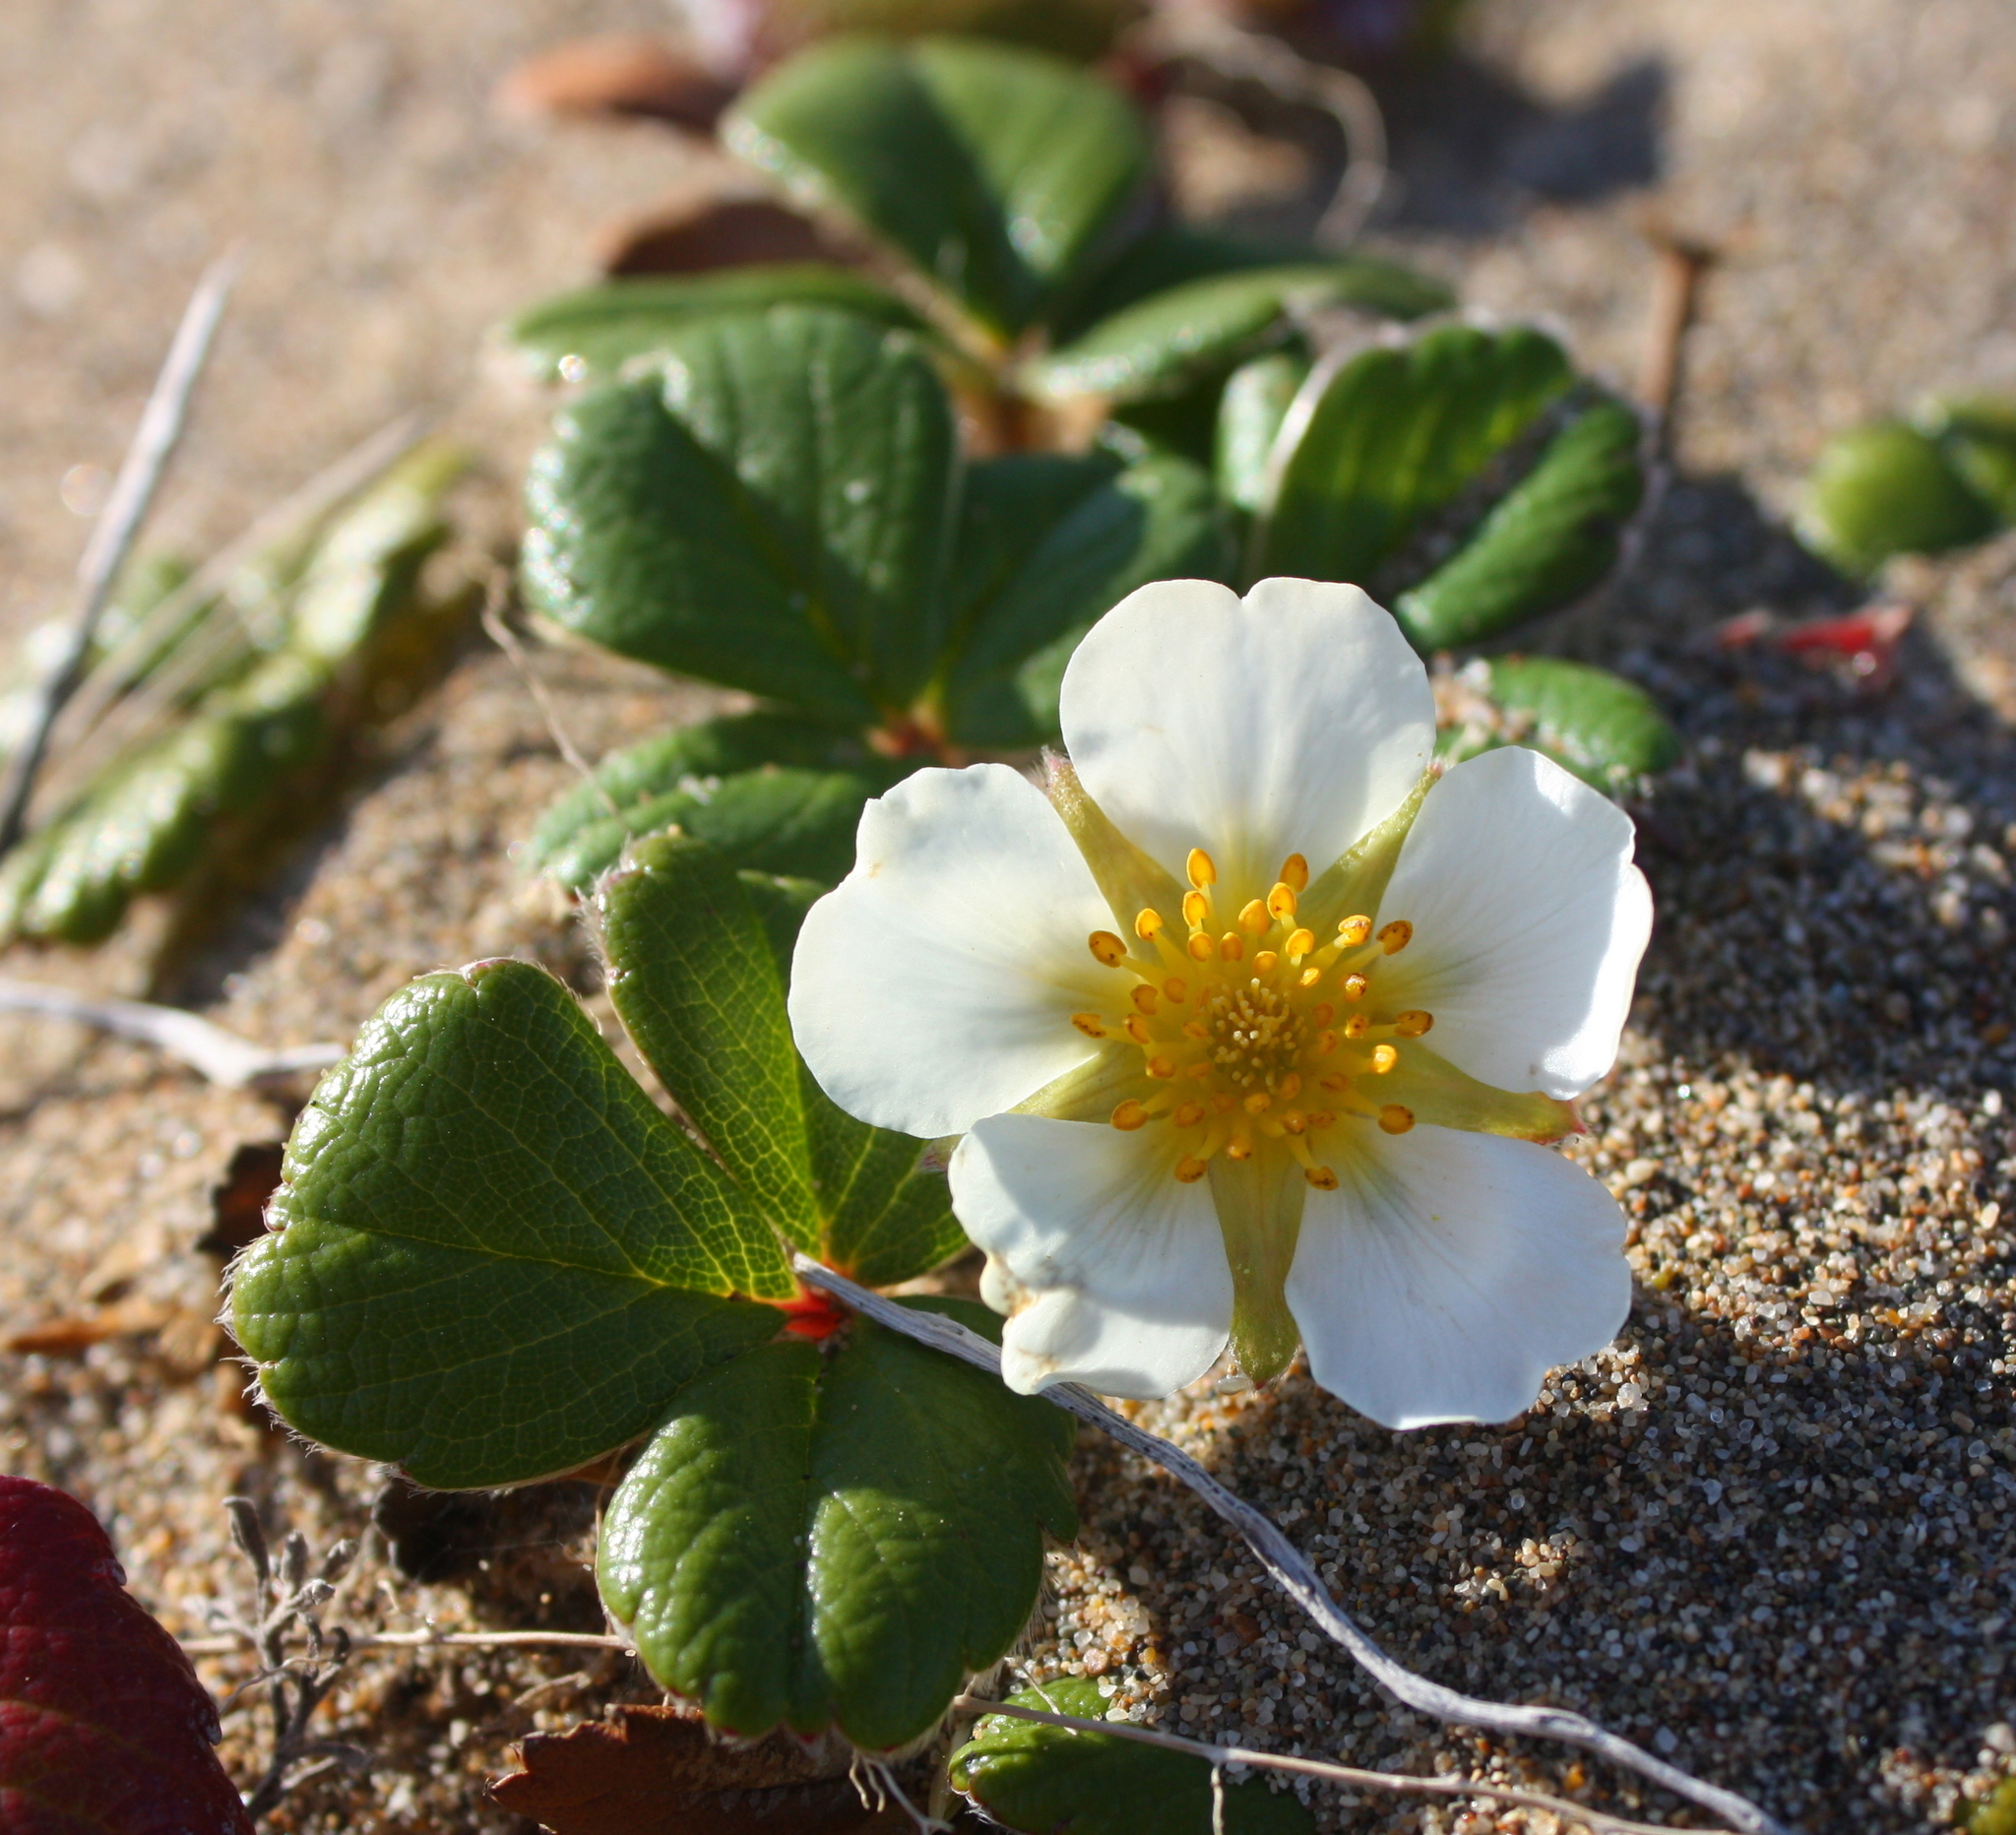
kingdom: Plantae
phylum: Tracheophyta
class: Magnoliopsida
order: Rosales
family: Rosaceae
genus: Fragaria
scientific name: Fragaria chiloensis
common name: Beach strawberry
